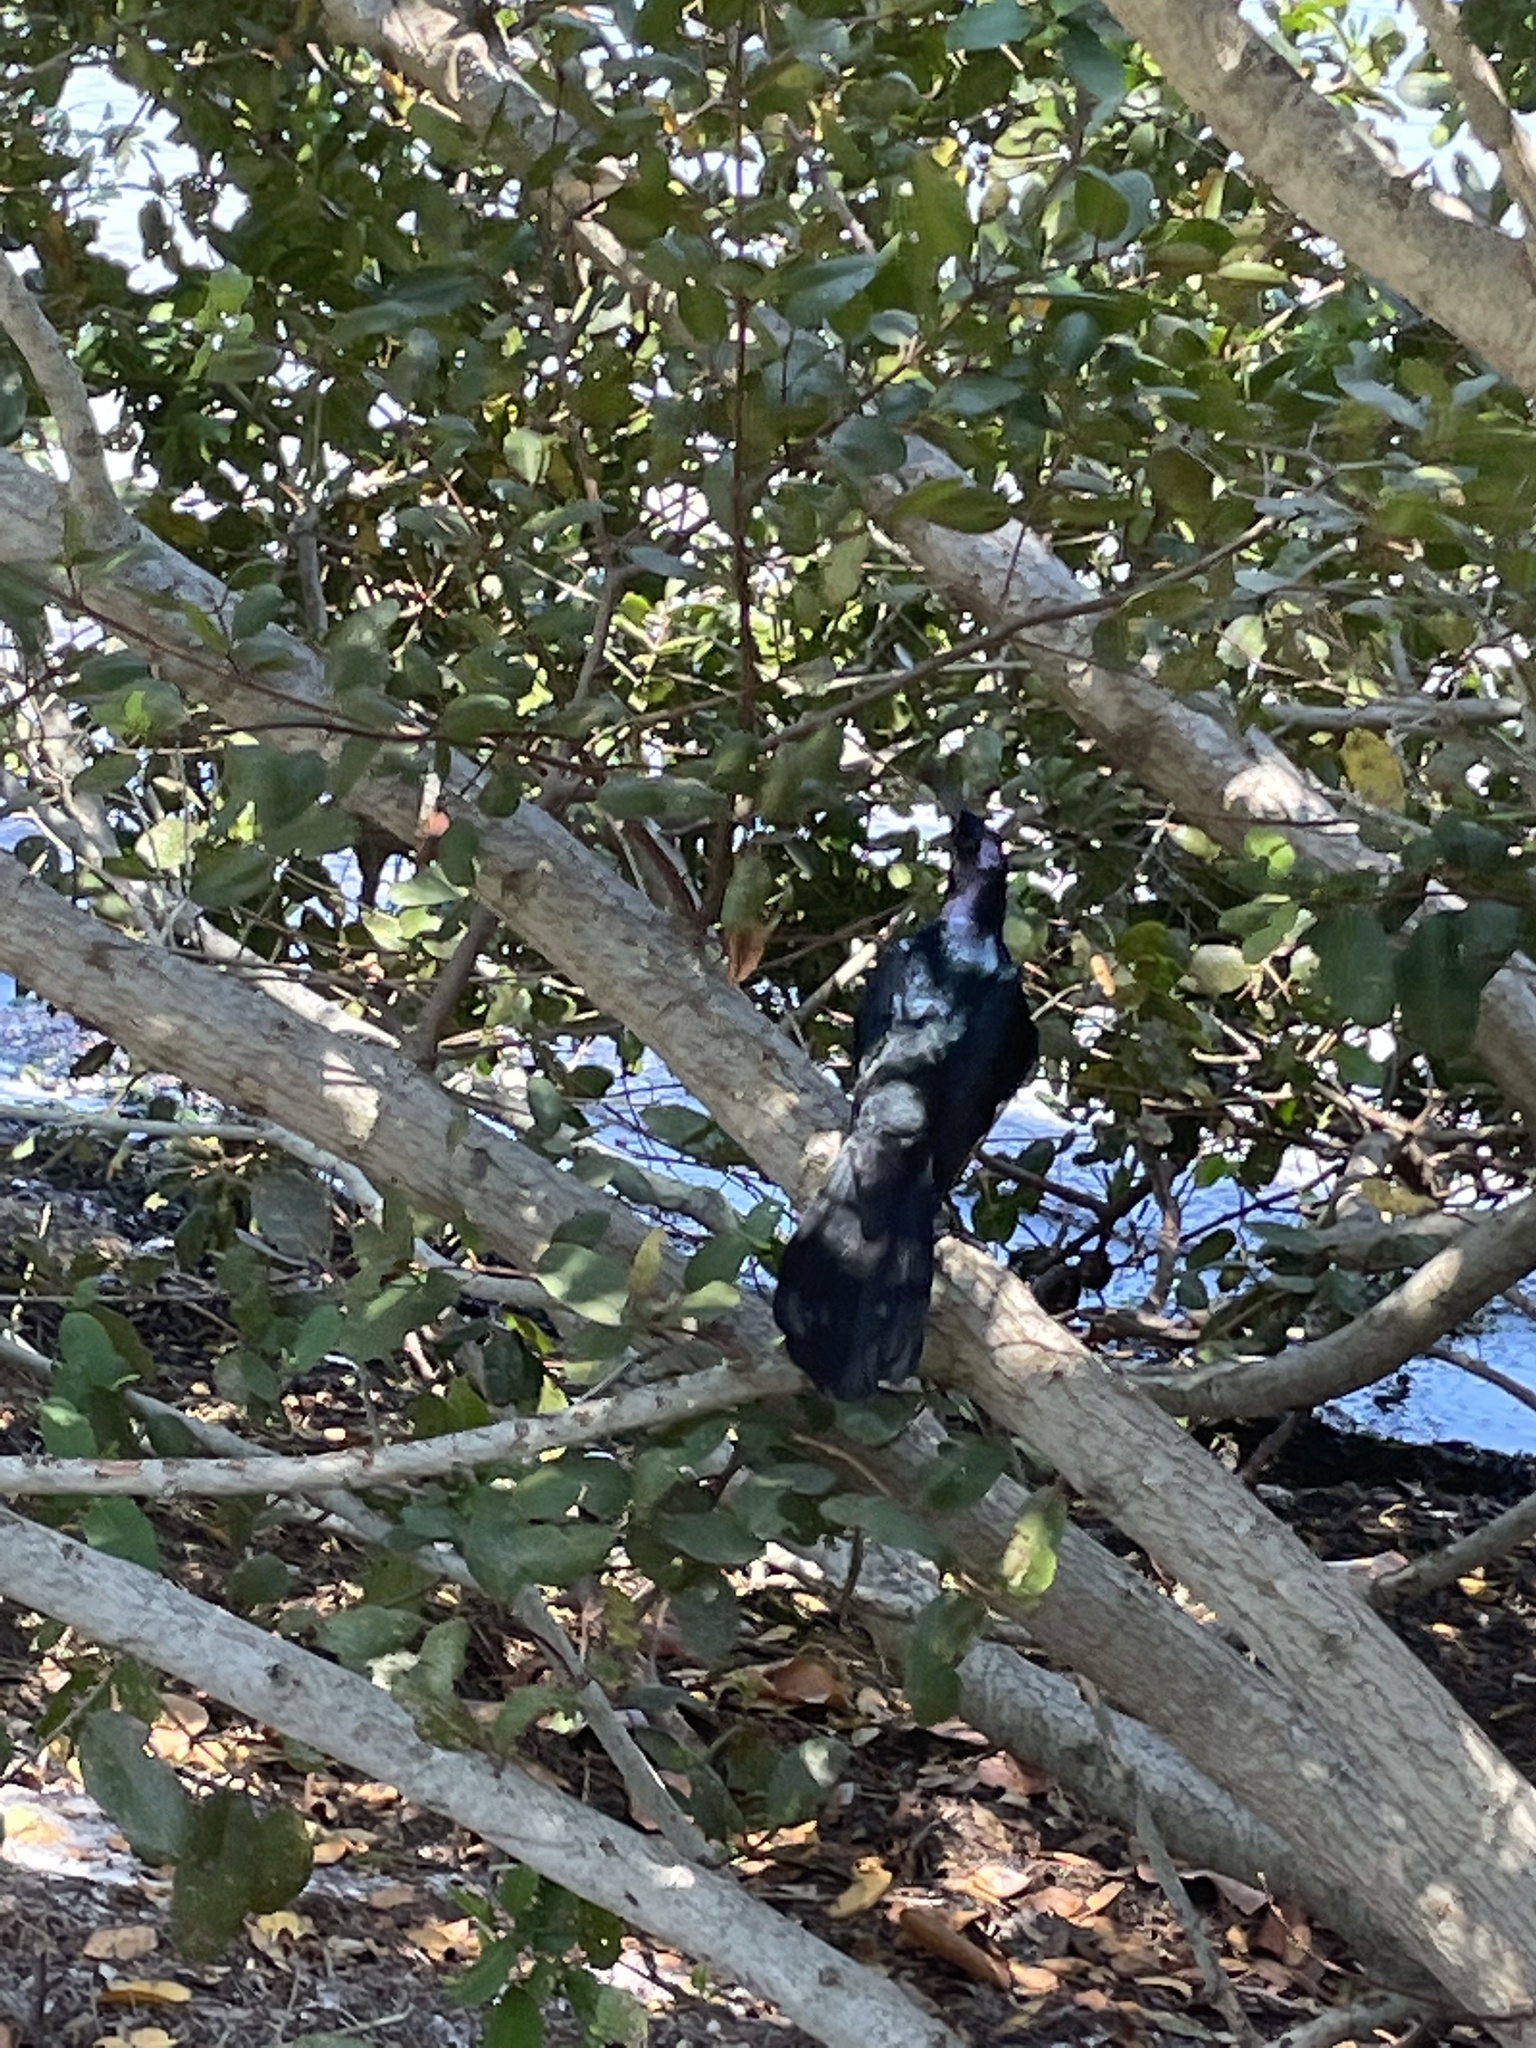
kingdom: Animalia
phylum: Chordata
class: Aves
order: Passeriformes
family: Icteridae
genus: Quiscalus
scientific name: Quiscalus major
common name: Boat-tailed grackle
